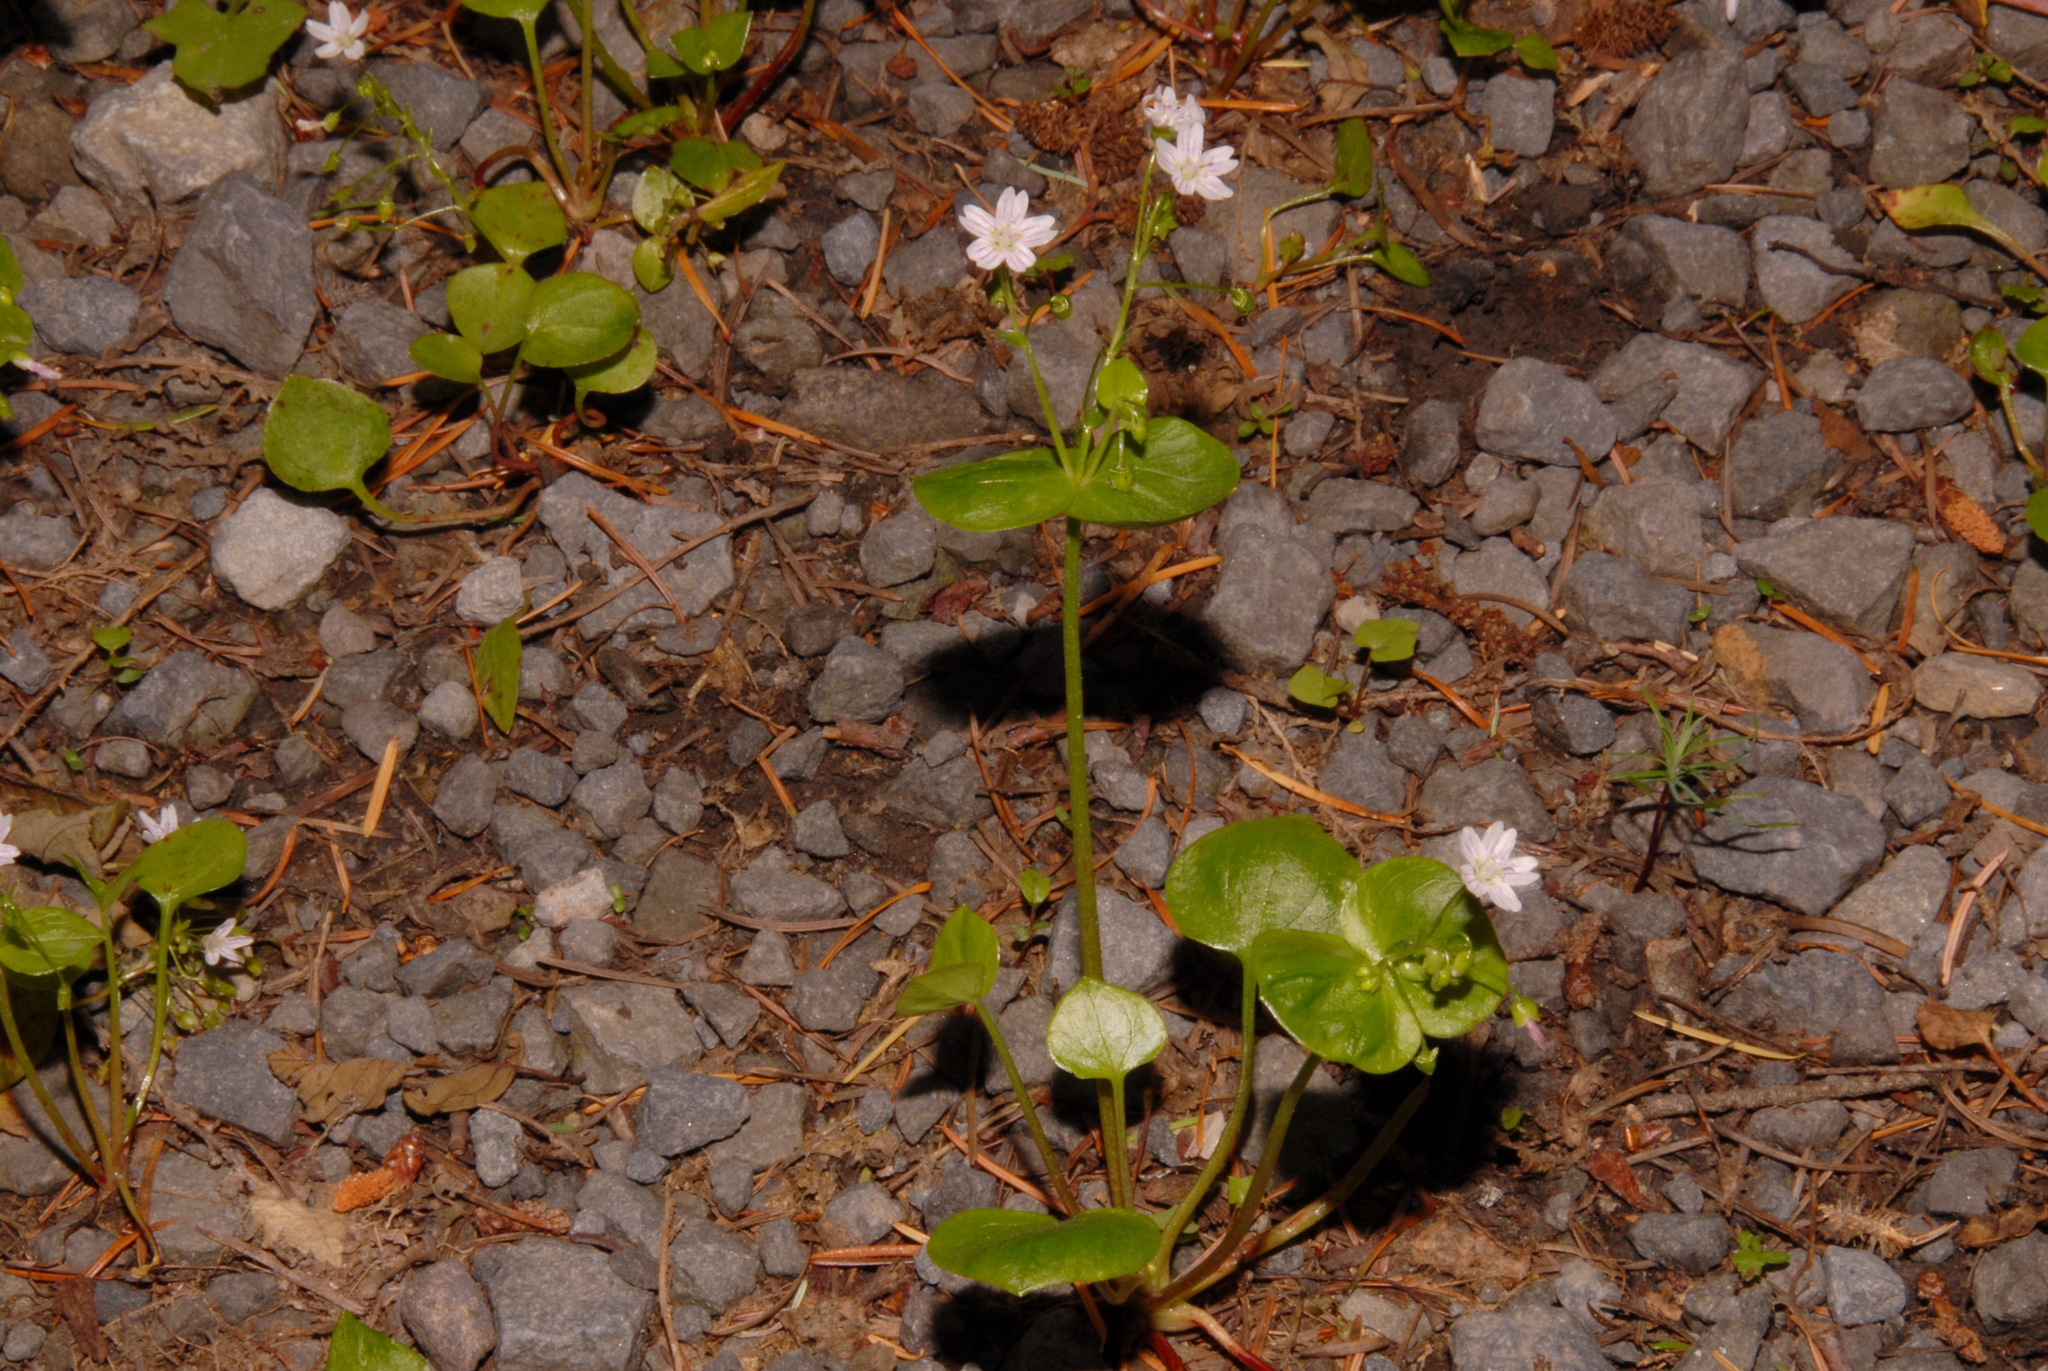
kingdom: Plantae
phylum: Tracheophyta
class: Magnoliopsida
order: Caryophyllales
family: Montiaceae
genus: Claytonia
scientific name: Claytonia sibirica
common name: Pink purslane
